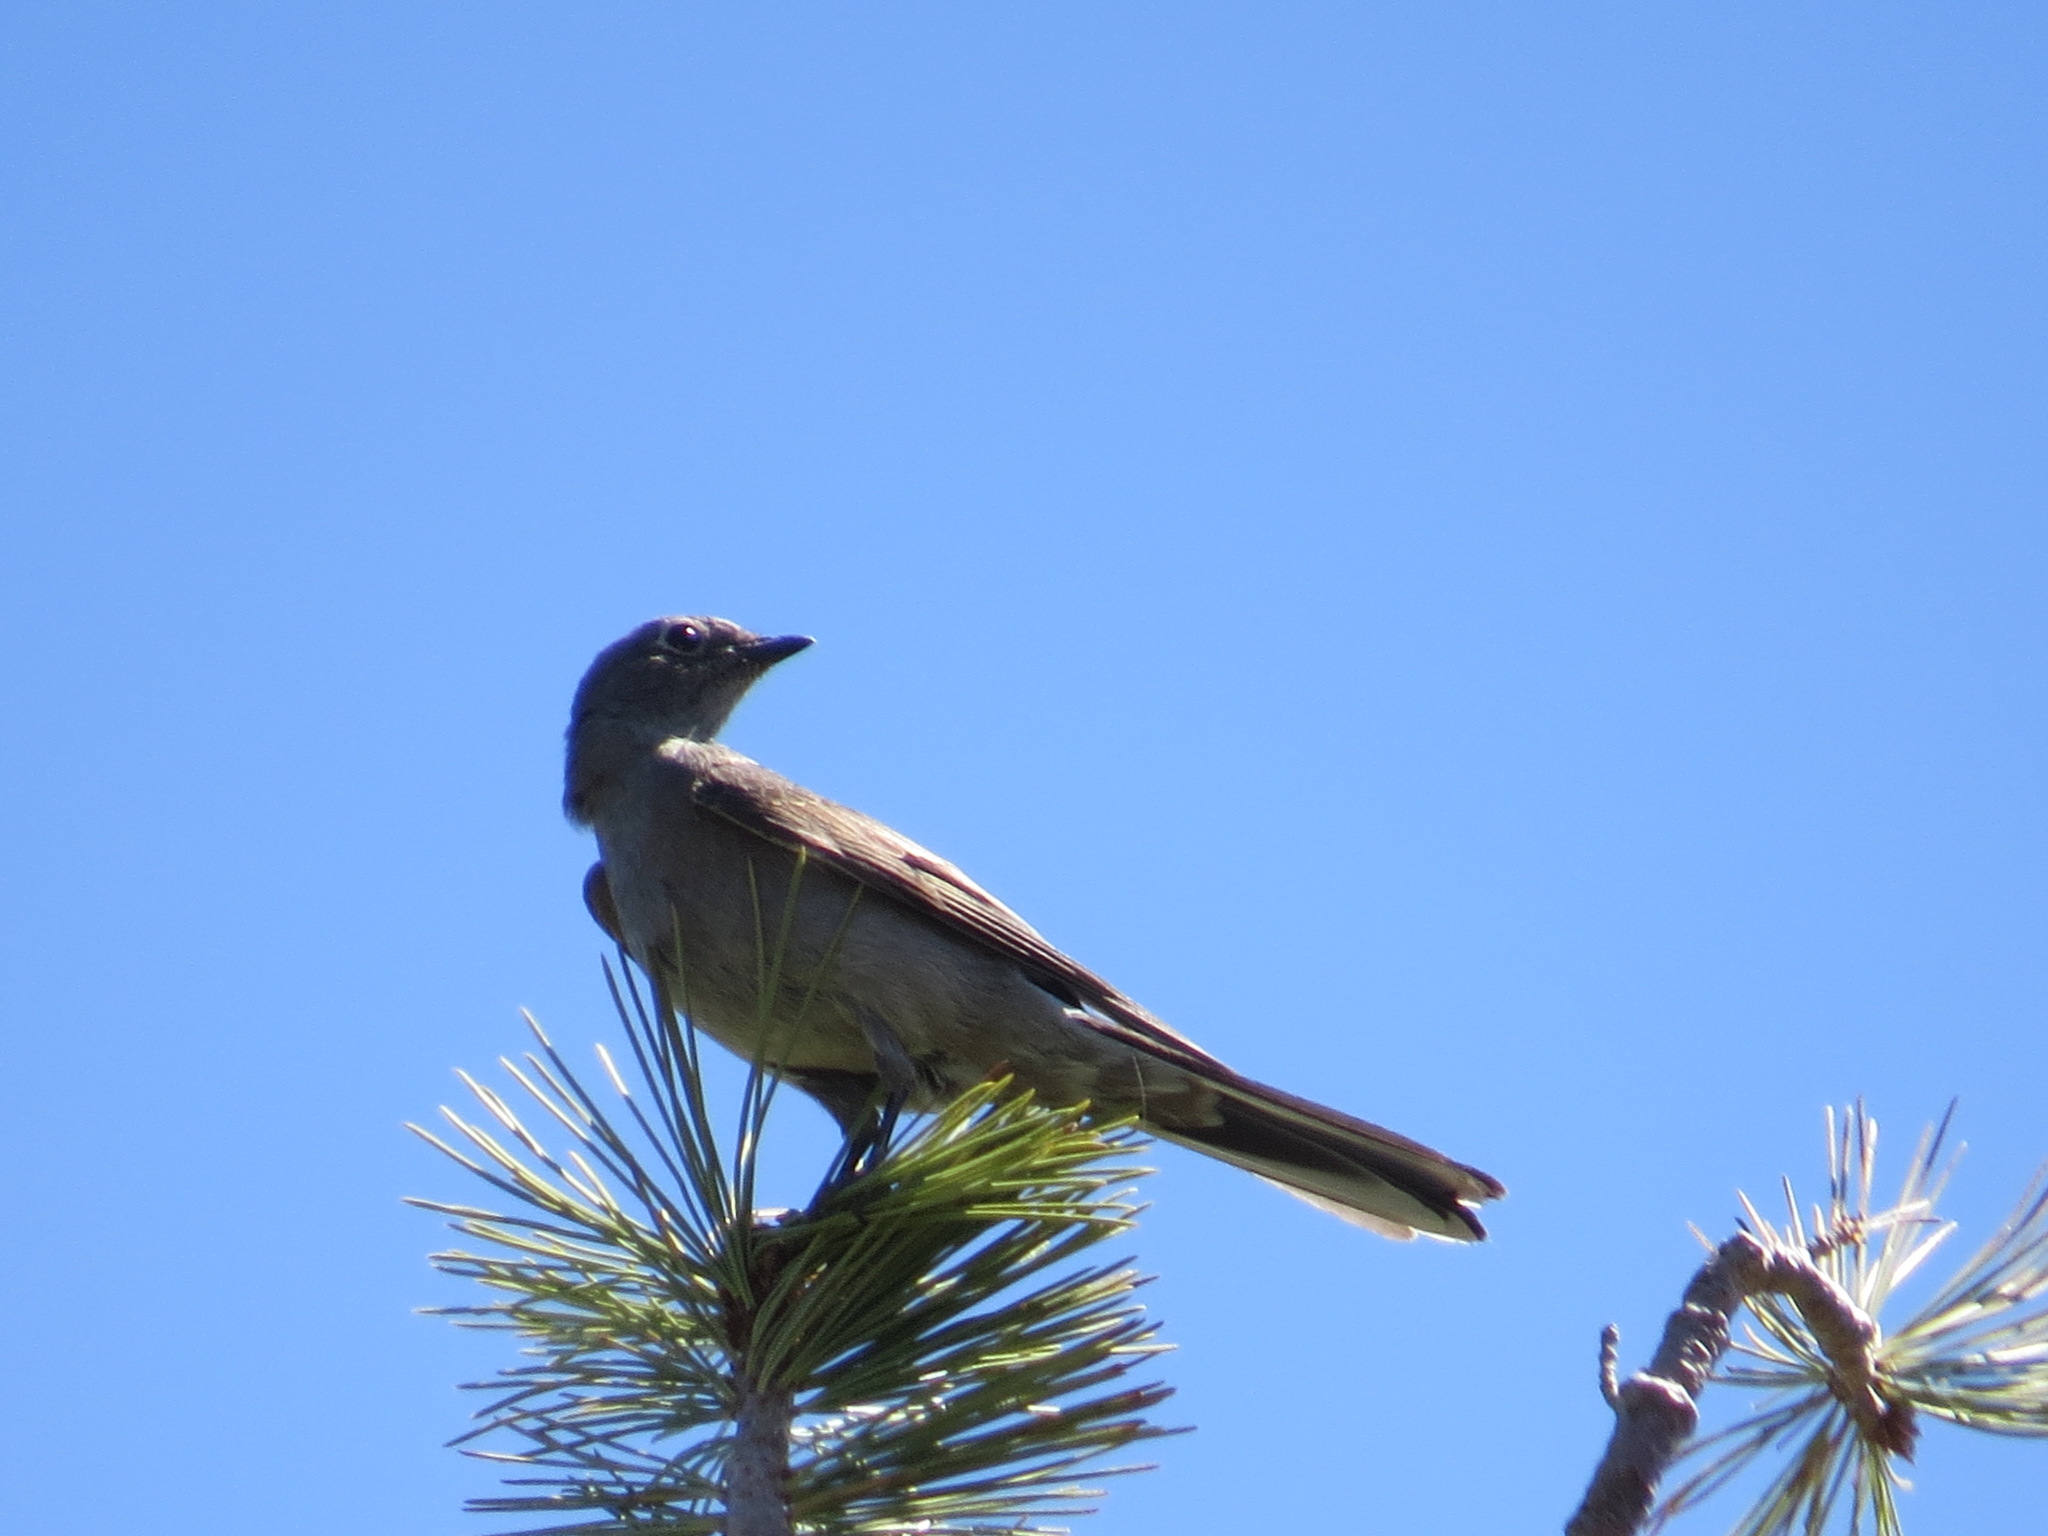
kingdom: Animalia
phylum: Chordata
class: Aves
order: Passeriformes
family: Turdidae
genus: Myadestes
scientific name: Myadestes townsendi
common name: Townsend's solitaire
